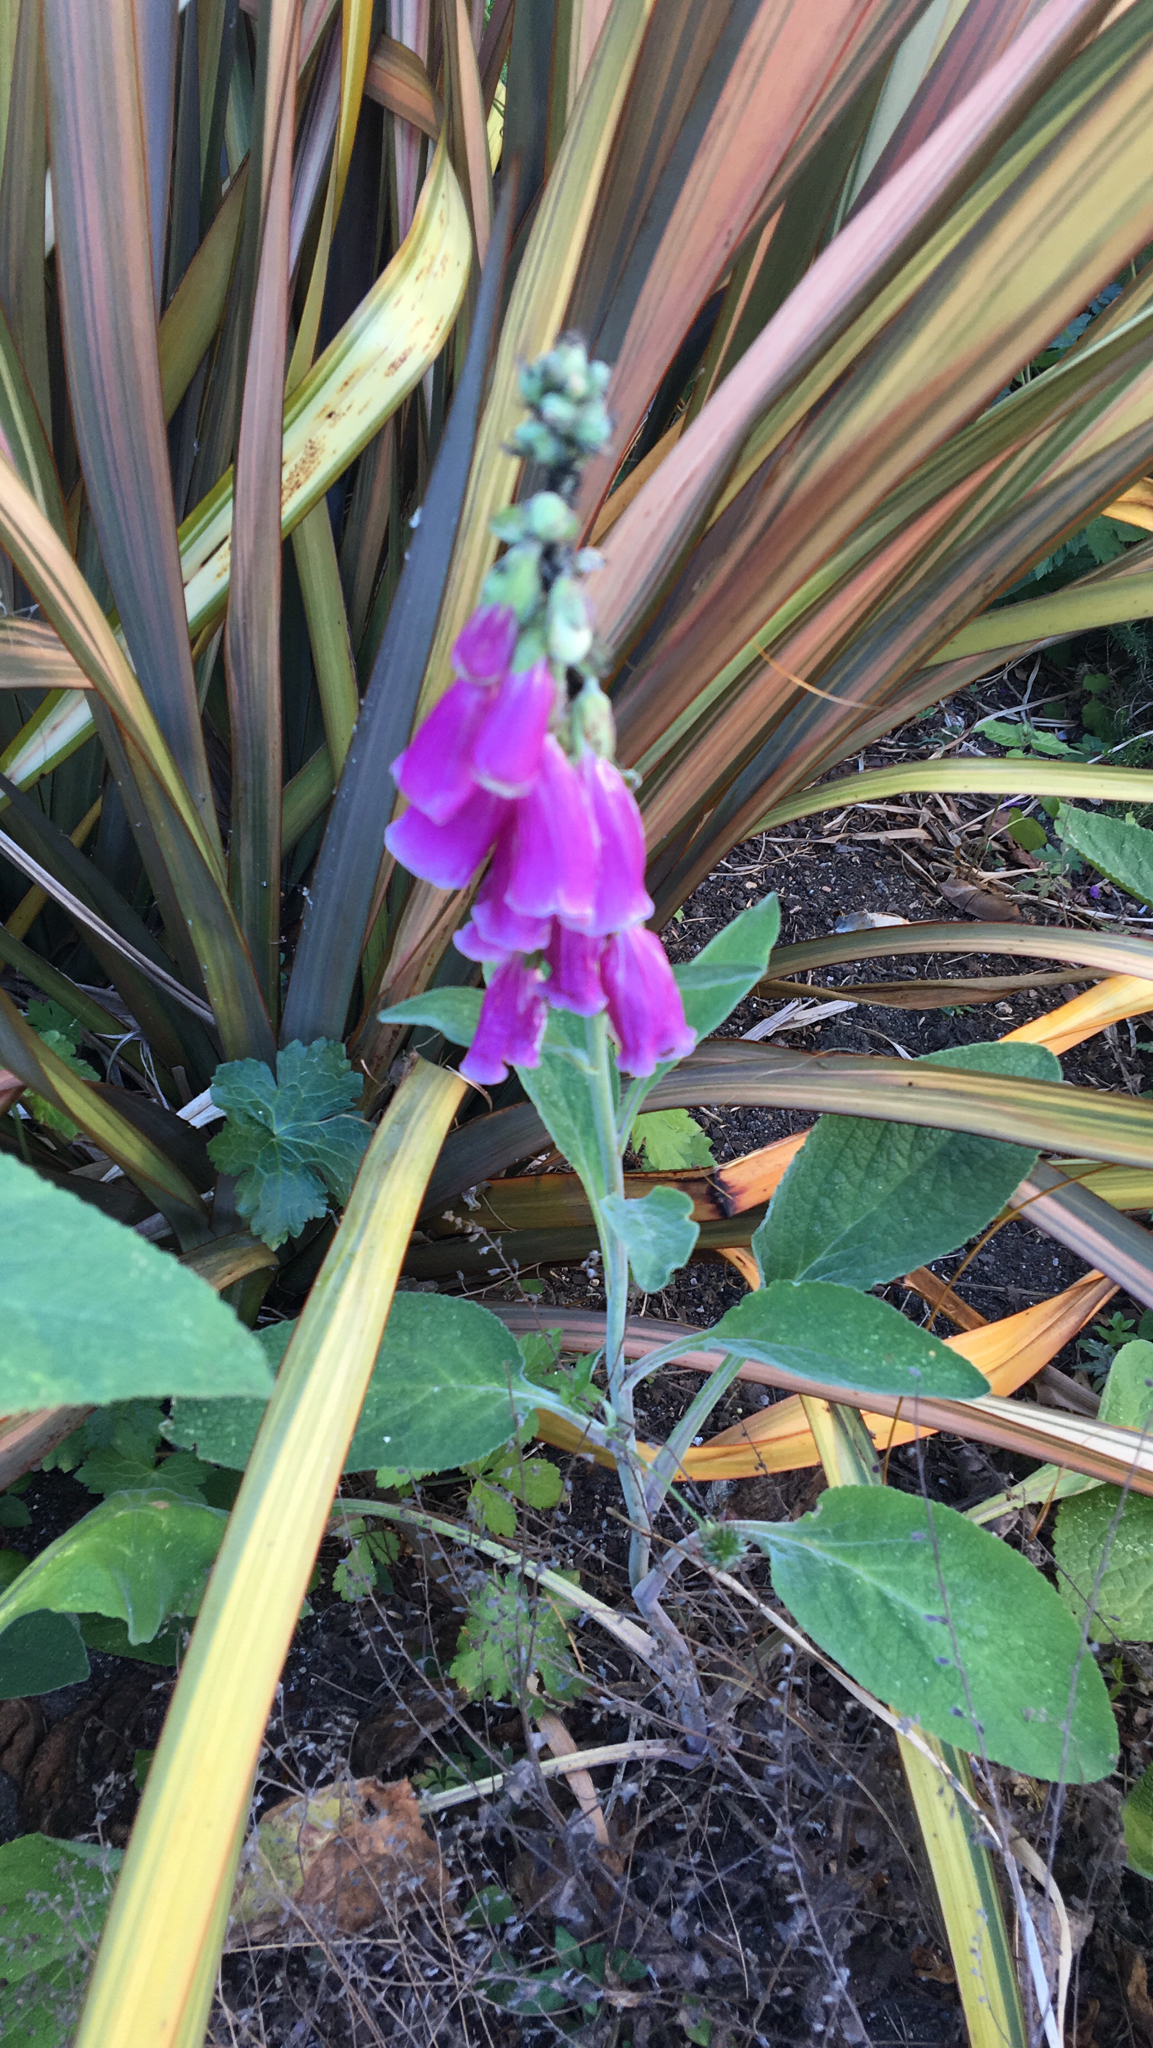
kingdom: Plantae
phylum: Tracheophyta
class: Magnoliopsida
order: Lamiales
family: Plantaginaceae
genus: Digitalis
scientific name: Digitalis purpurea
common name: Foxglove
